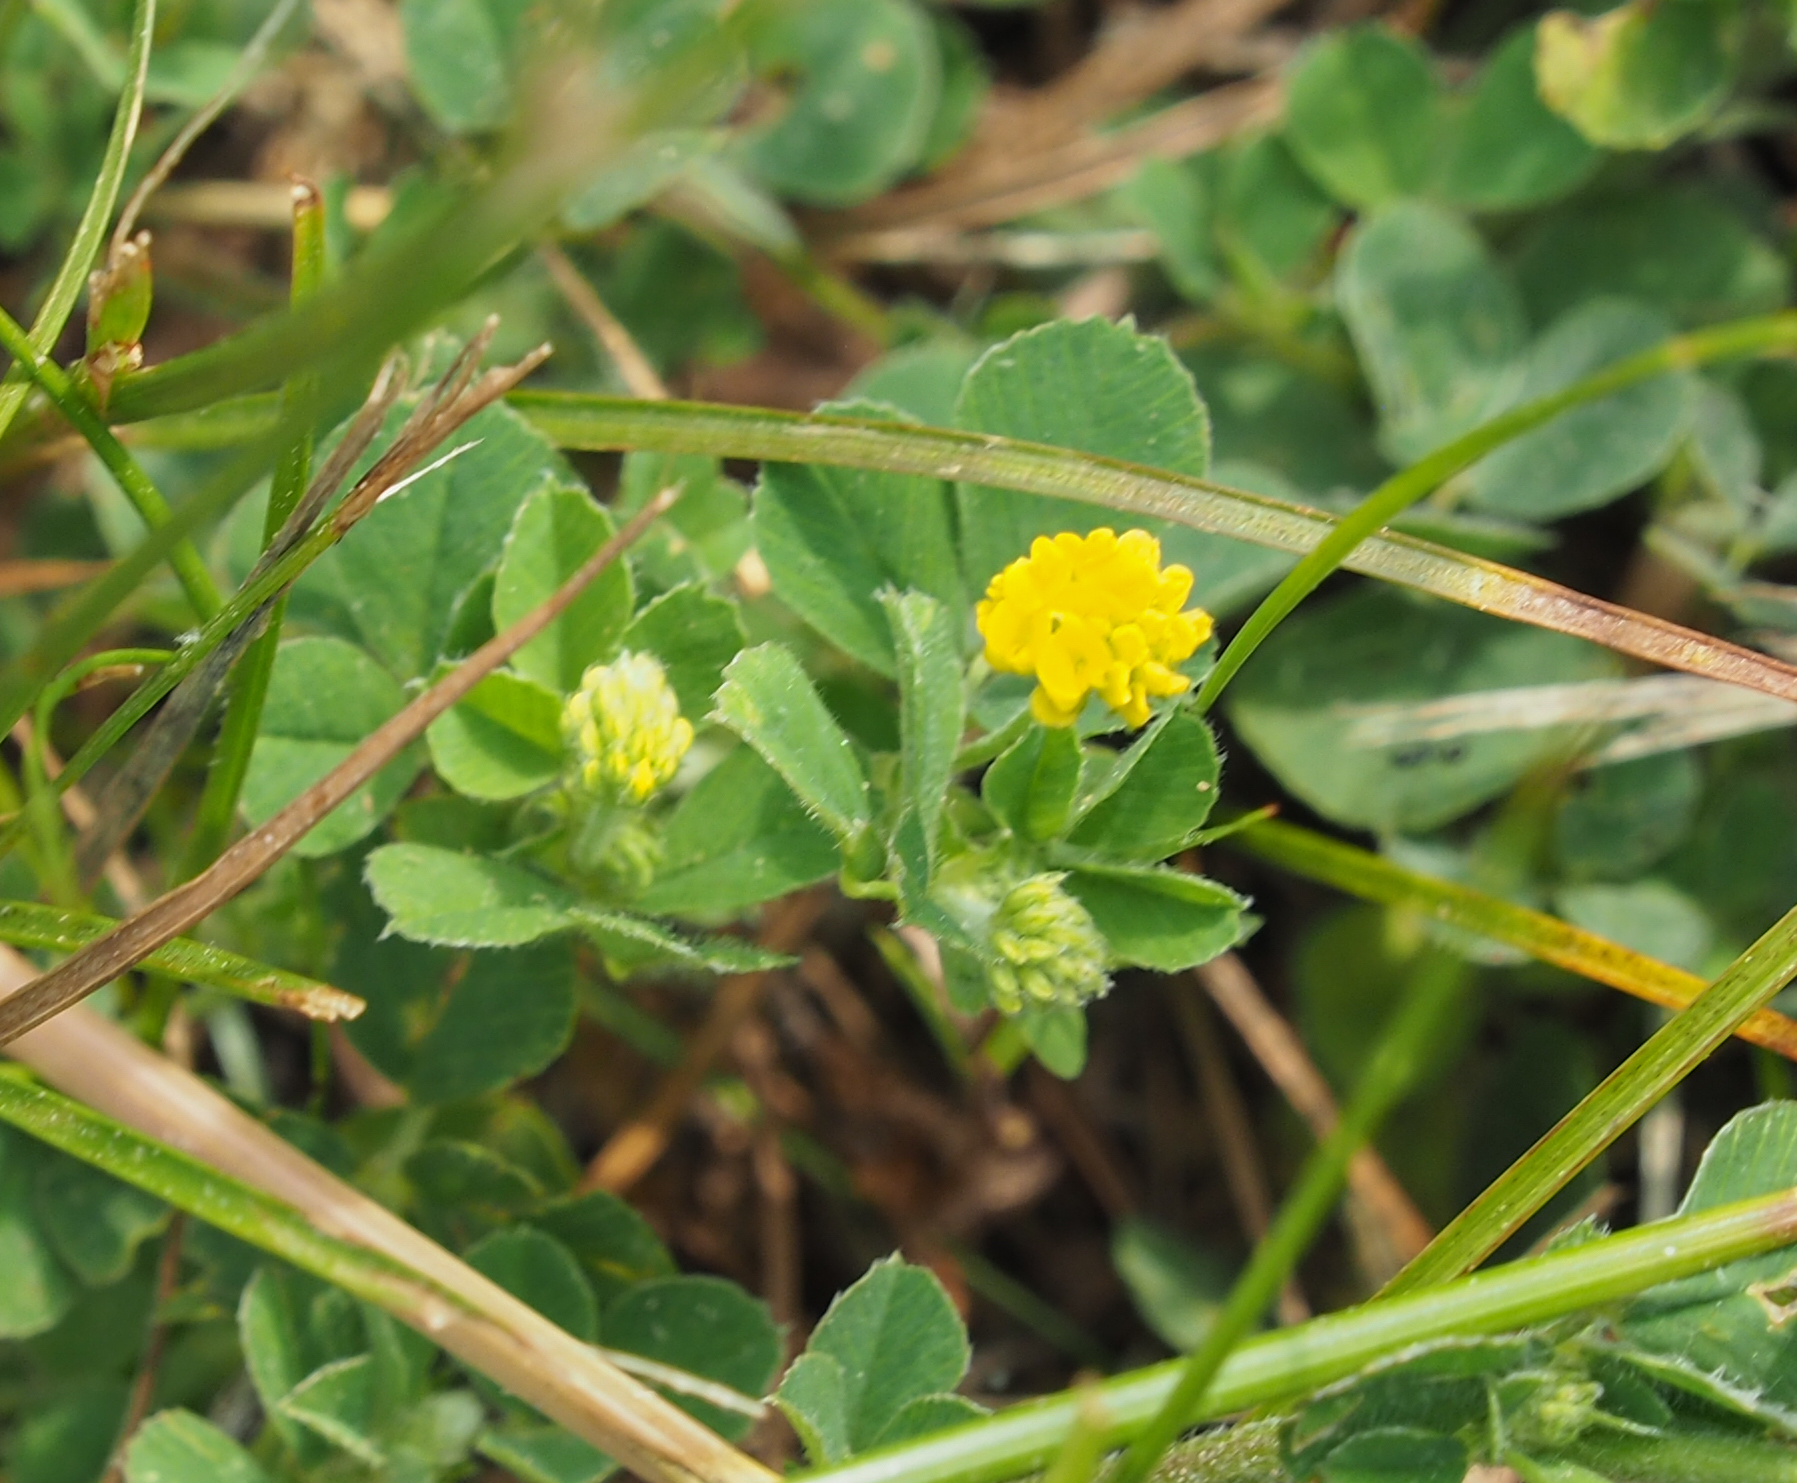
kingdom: Plantae
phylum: Tracheophyta
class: Magnoliopsida
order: Fabales
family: Fabaceae
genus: Medicago
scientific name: Medicago lupulina
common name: Black medick
